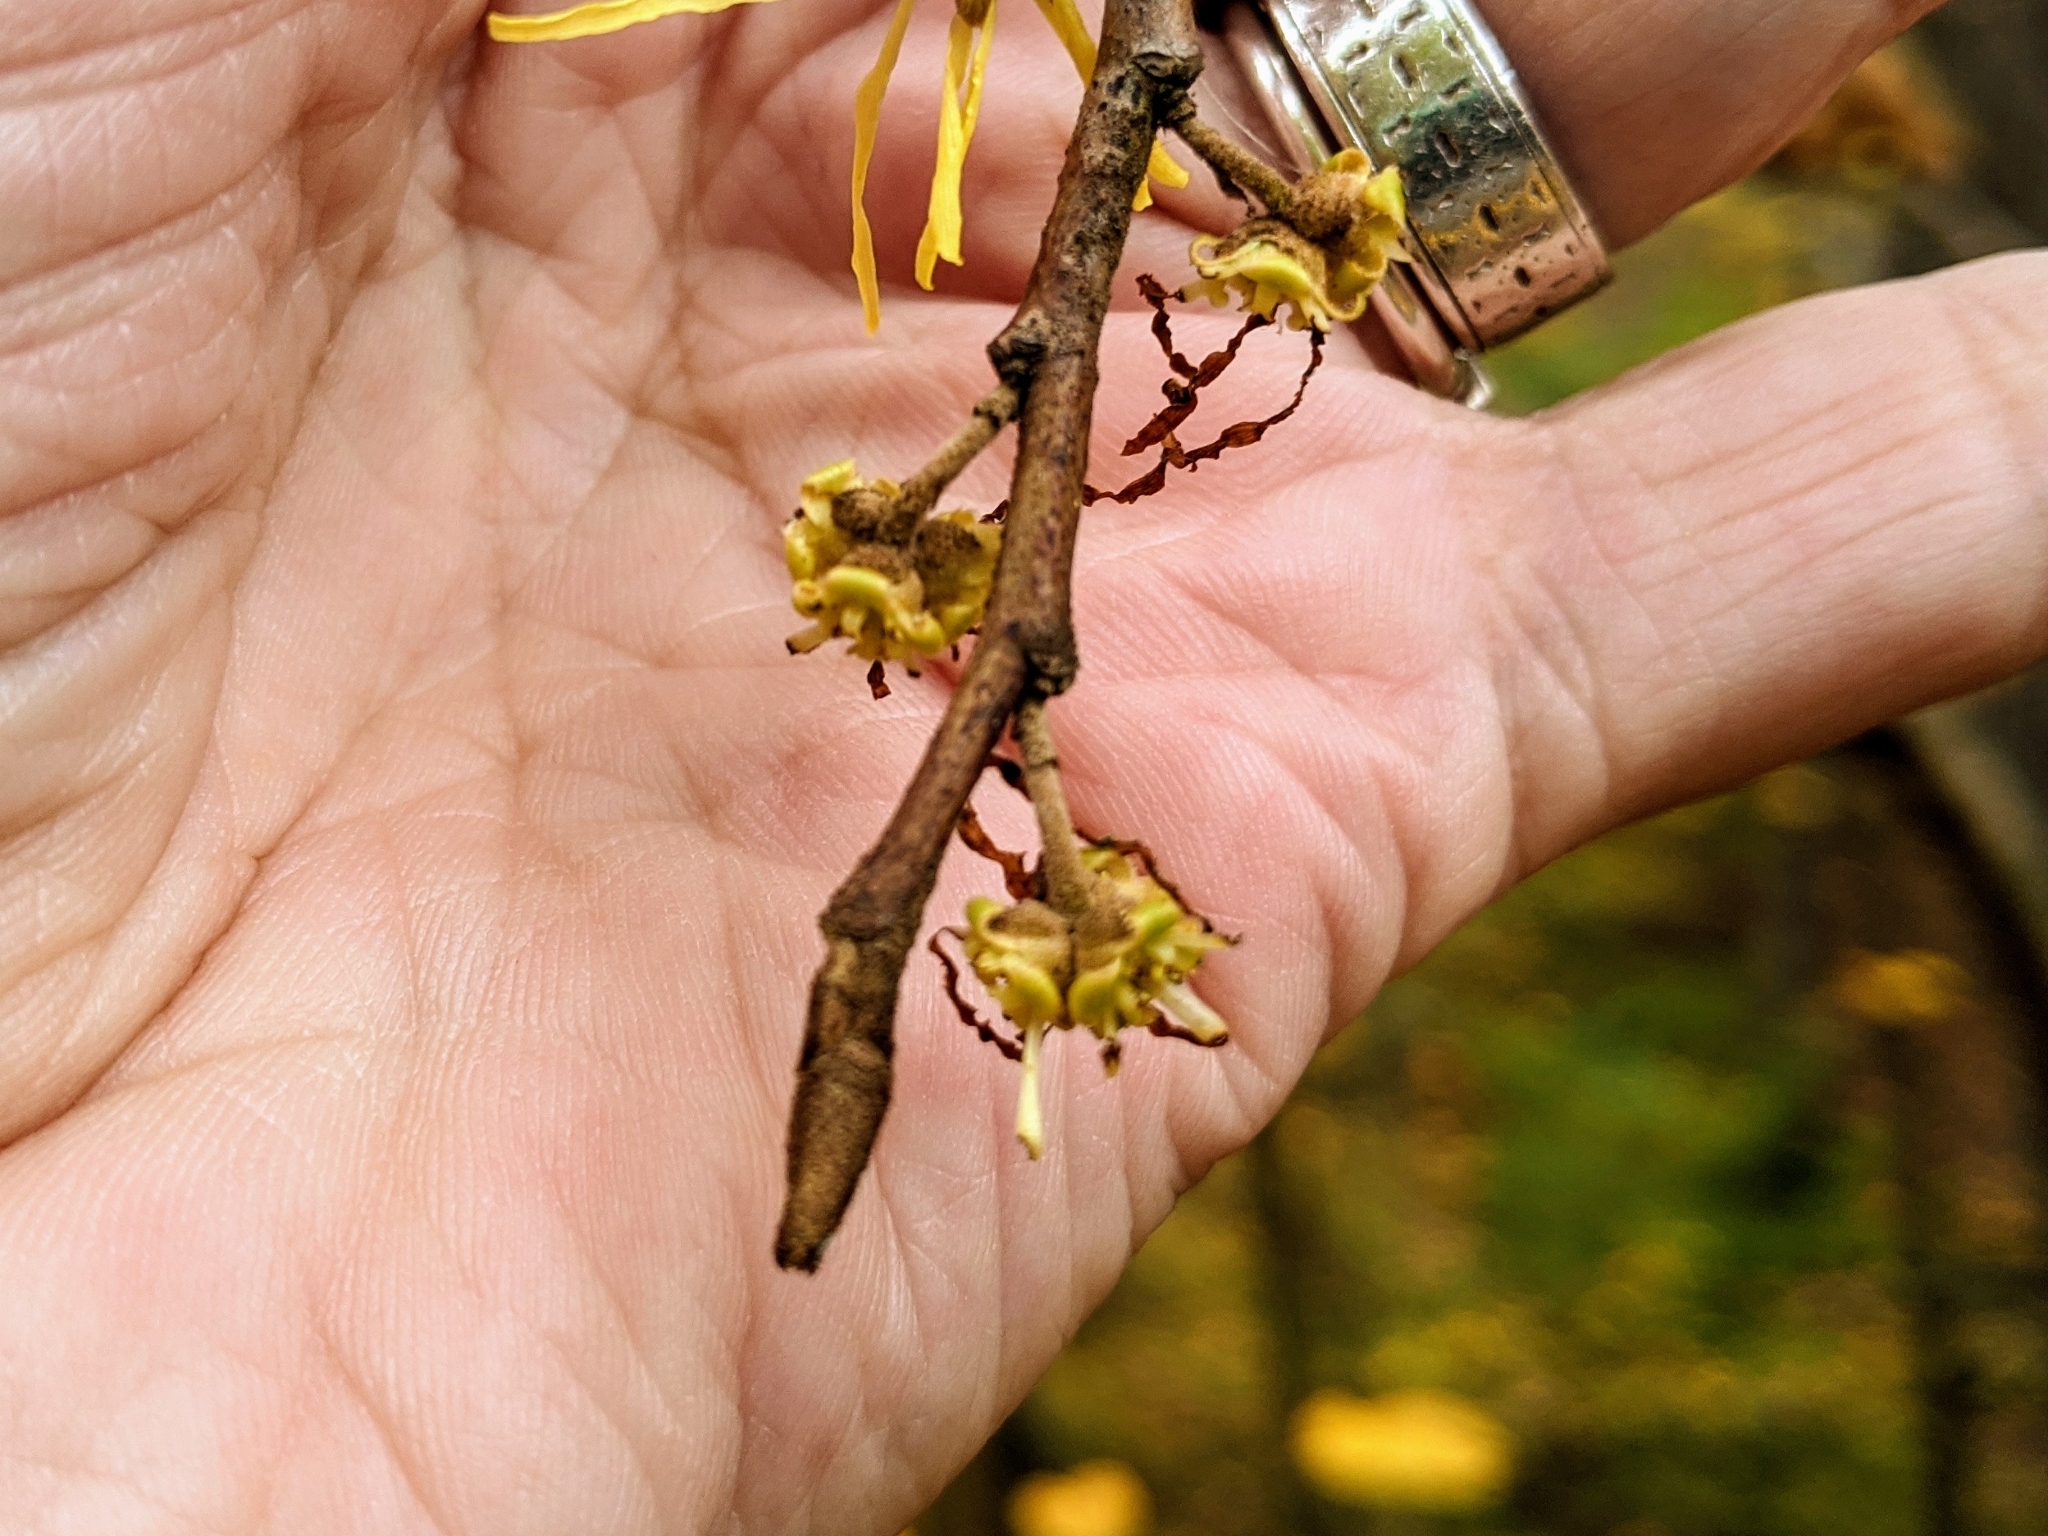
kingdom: Plantae
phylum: Tracheophyta
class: Magnoliopsida
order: Saxifragales
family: Hamamelidaceae
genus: Hamamelis
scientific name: Hamamelis virginiana
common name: Witch-hazel
